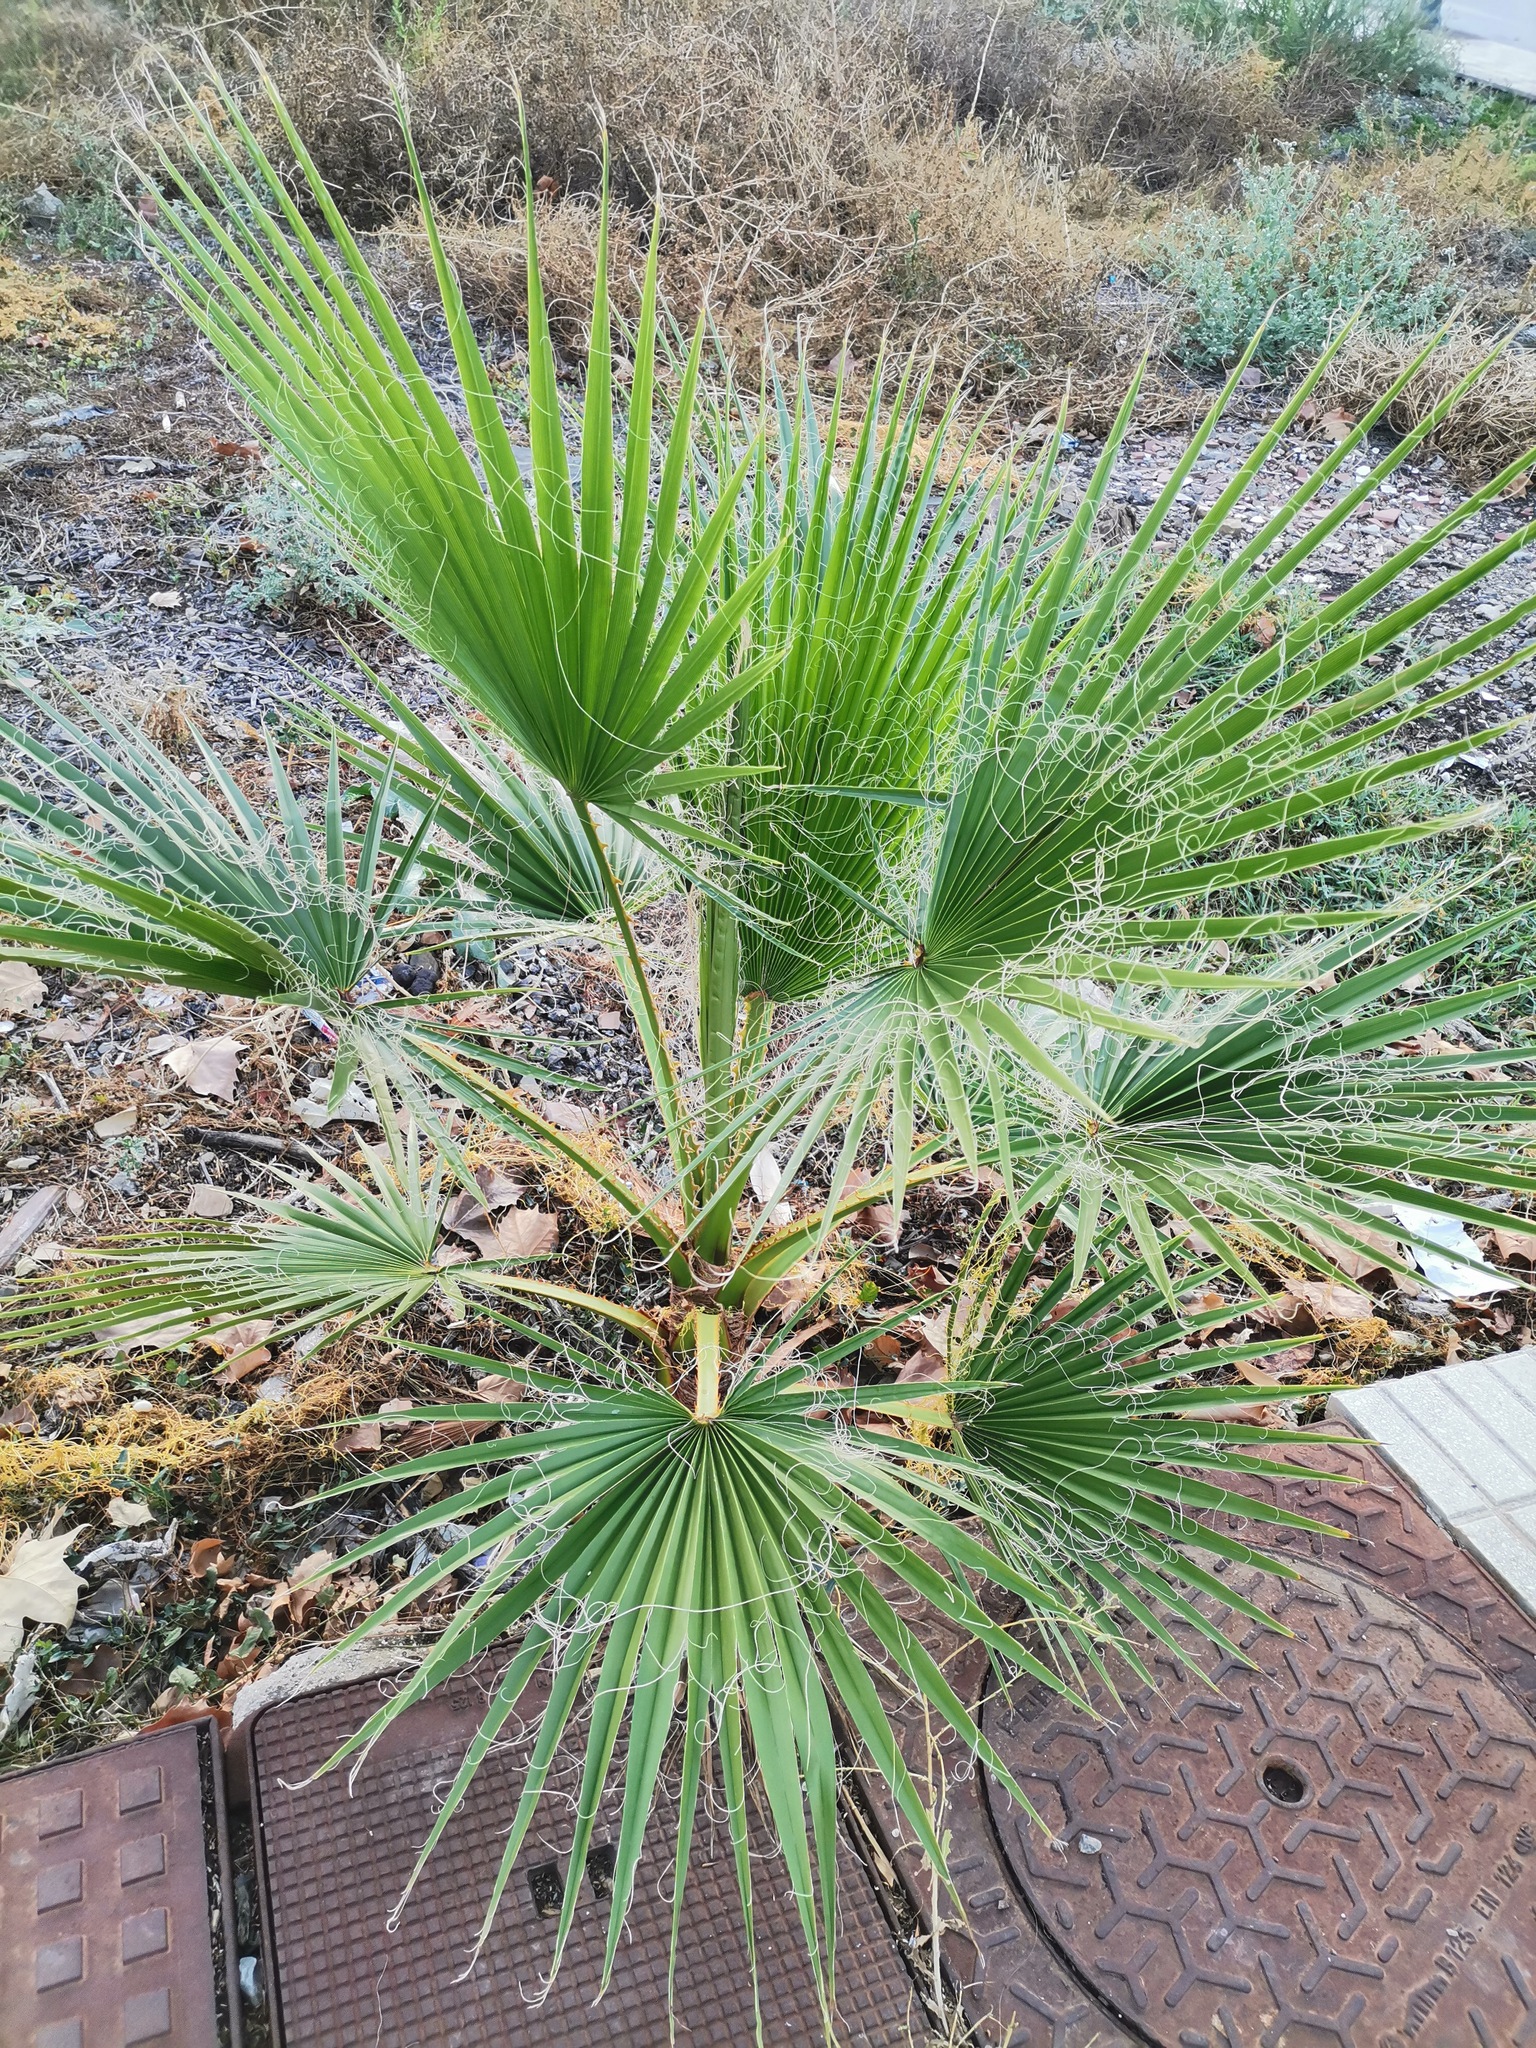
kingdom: Plantae
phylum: Tracheophyta
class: Liliopsida
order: Arecales
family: Arecaceae
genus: Washingtonia
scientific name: Washingtonia robusta
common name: Mexican fan palm
